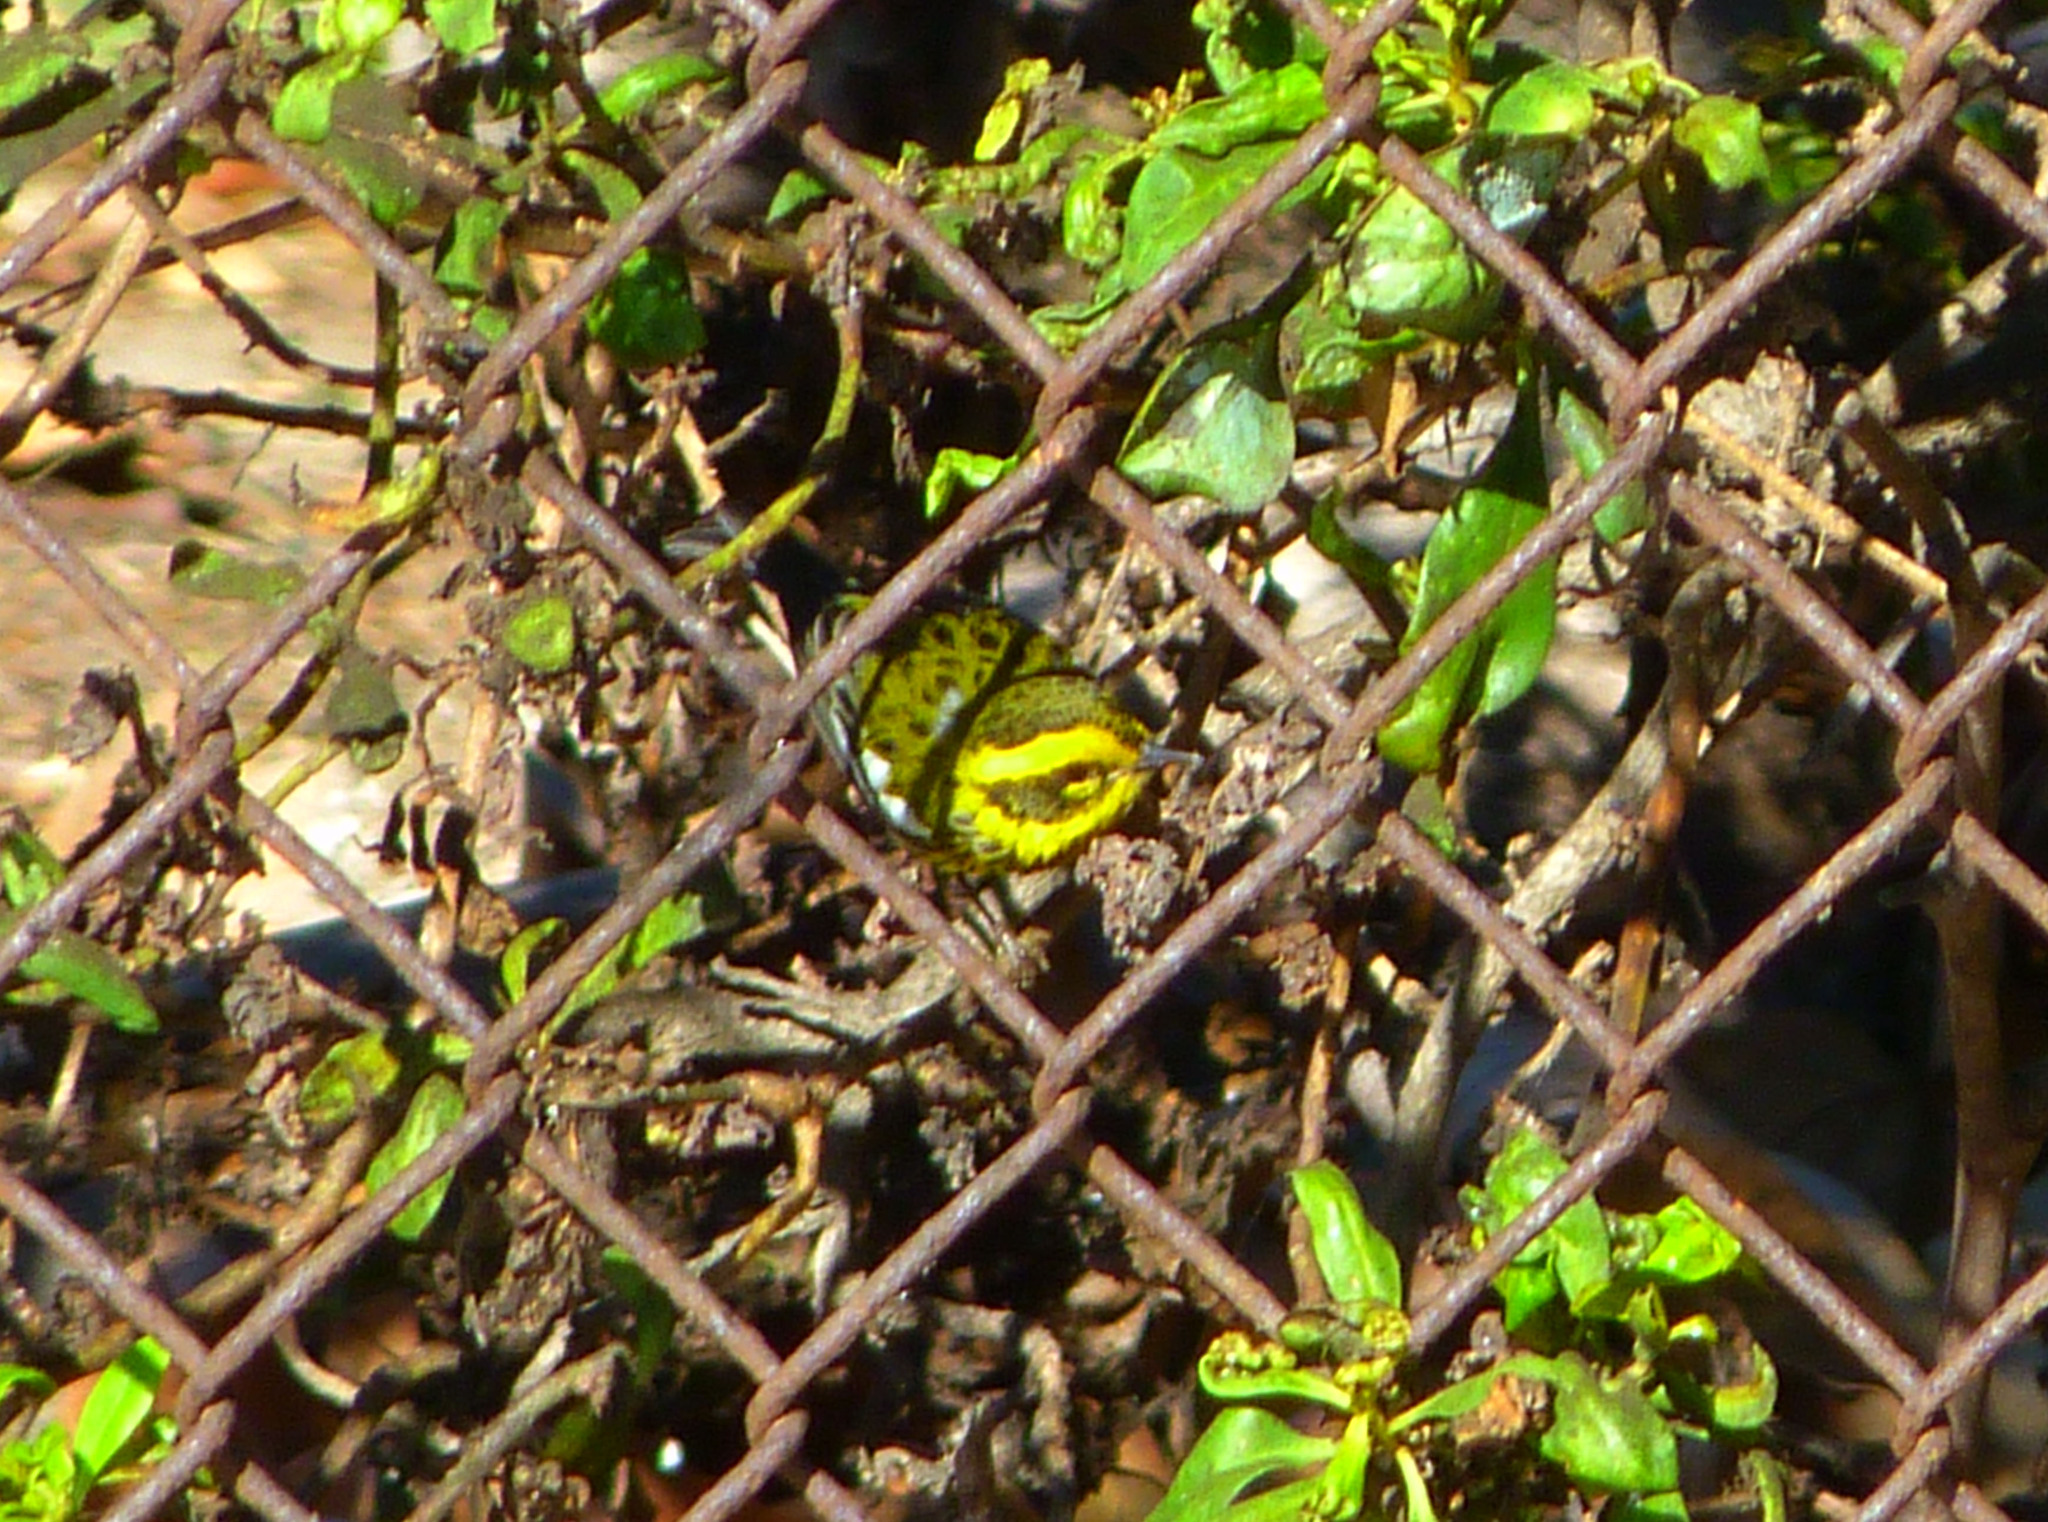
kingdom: Animalia
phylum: Chordata
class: Aves
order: Passeriformes
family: Parulidae
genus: Setophaga
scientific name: Setophaga townsendi
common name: Townsend's warbler
